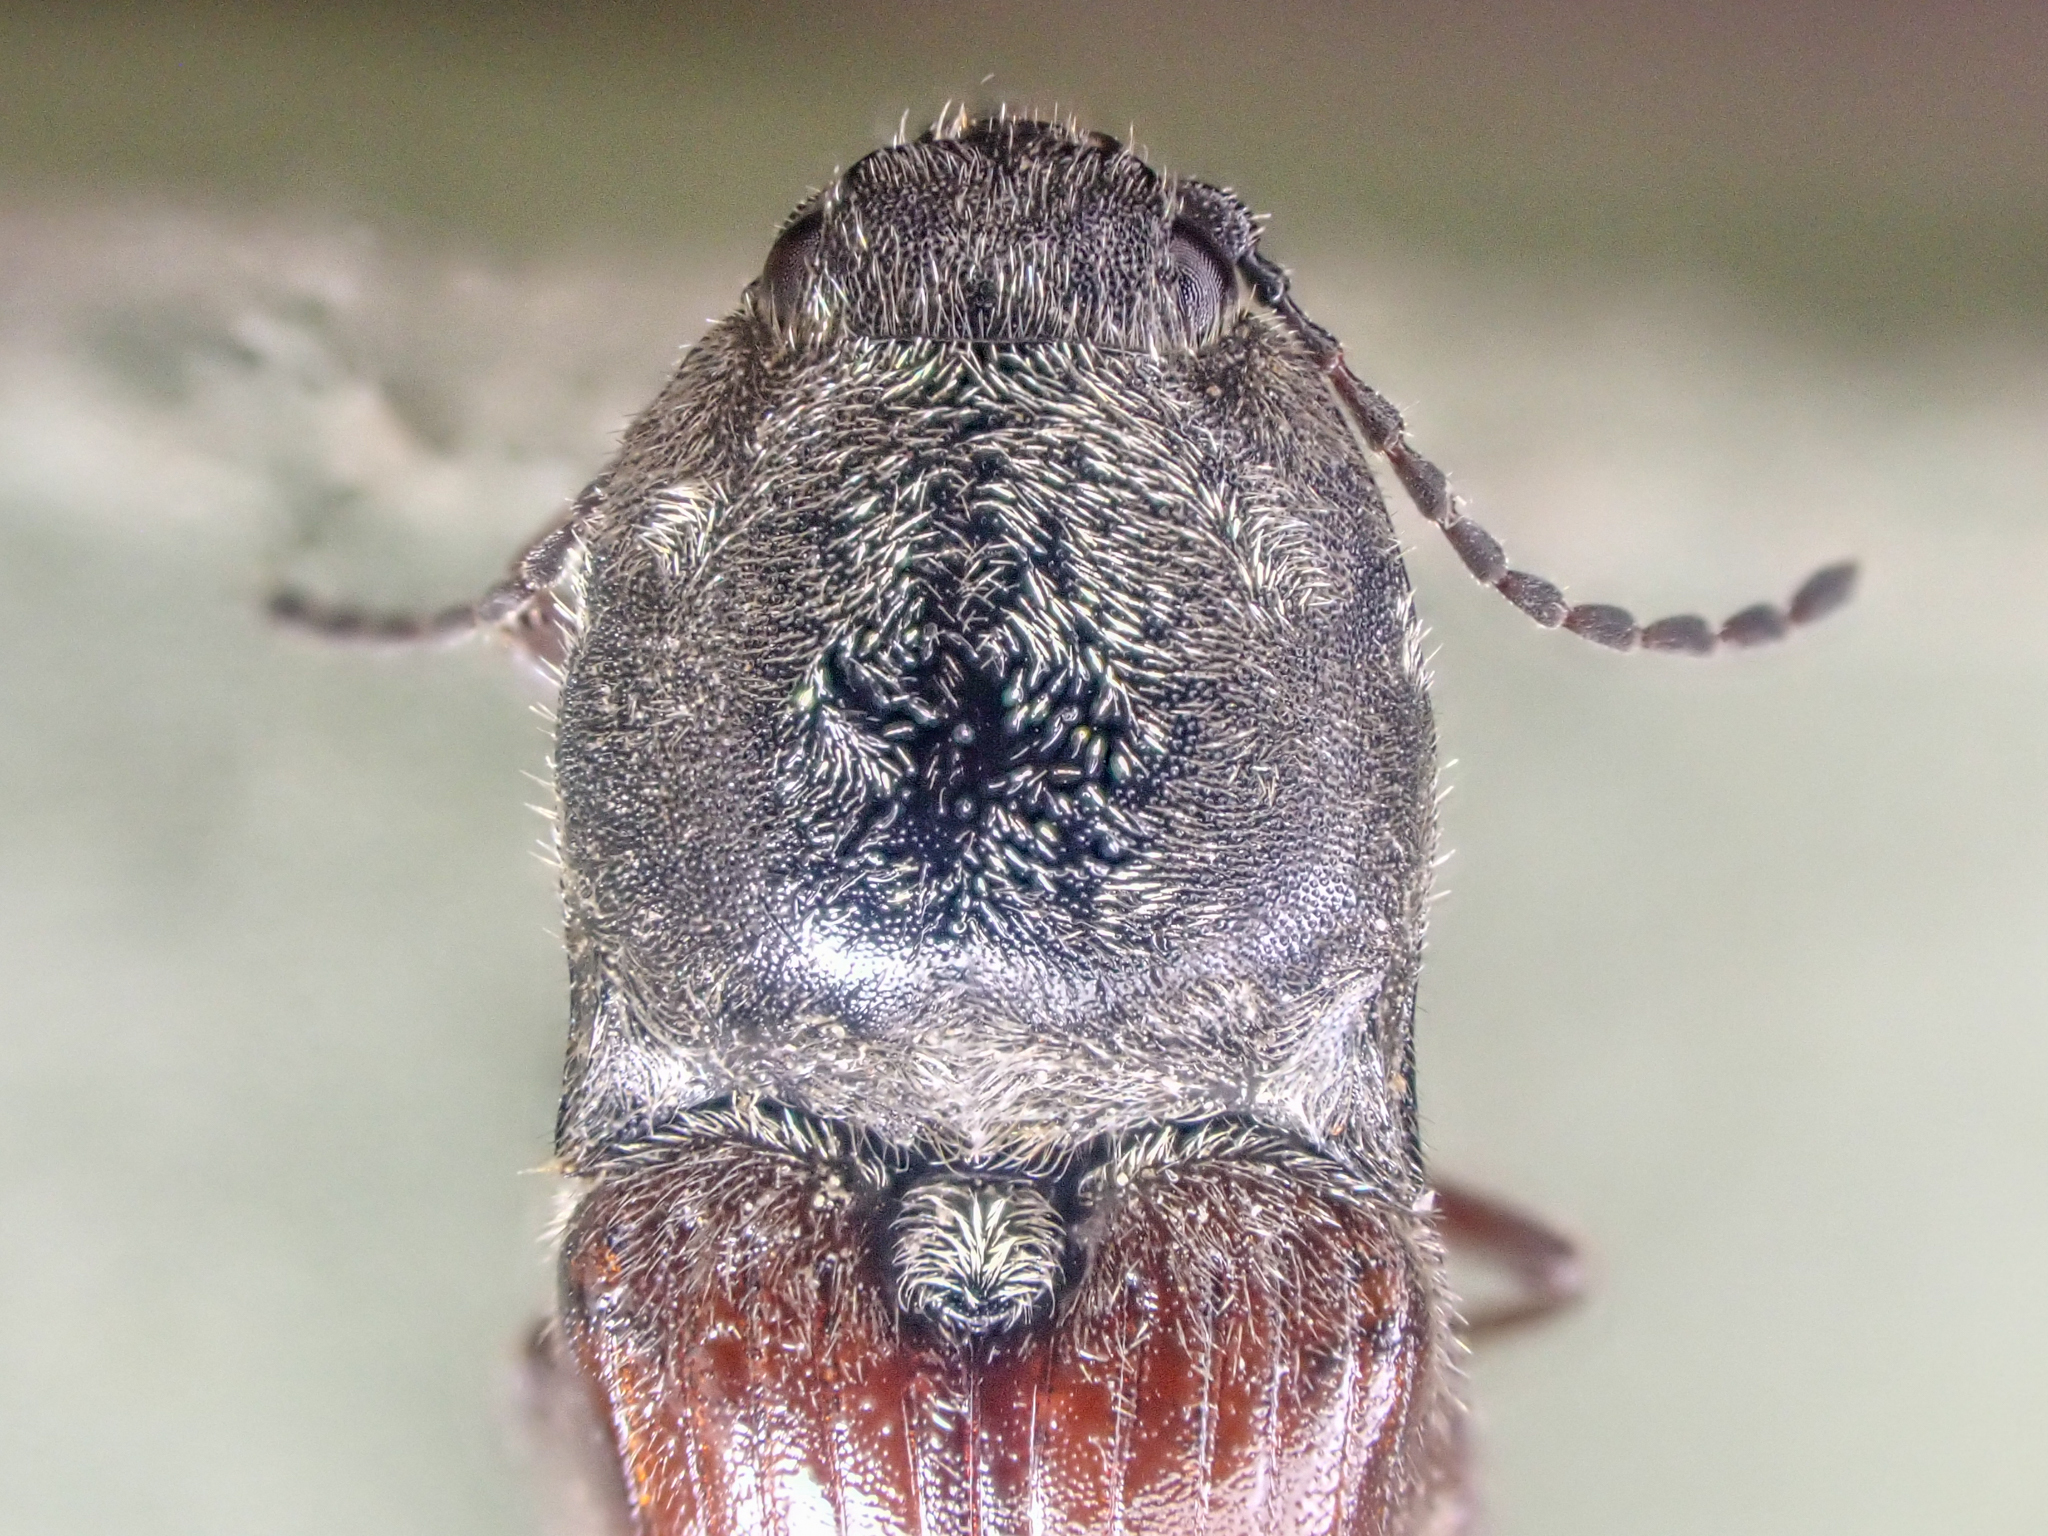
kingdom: Animalia
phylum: Arthropoda
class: Insecta
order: Coleoptera
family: Elateridae
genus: Prosternon
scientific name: Prosternon bombycinum
